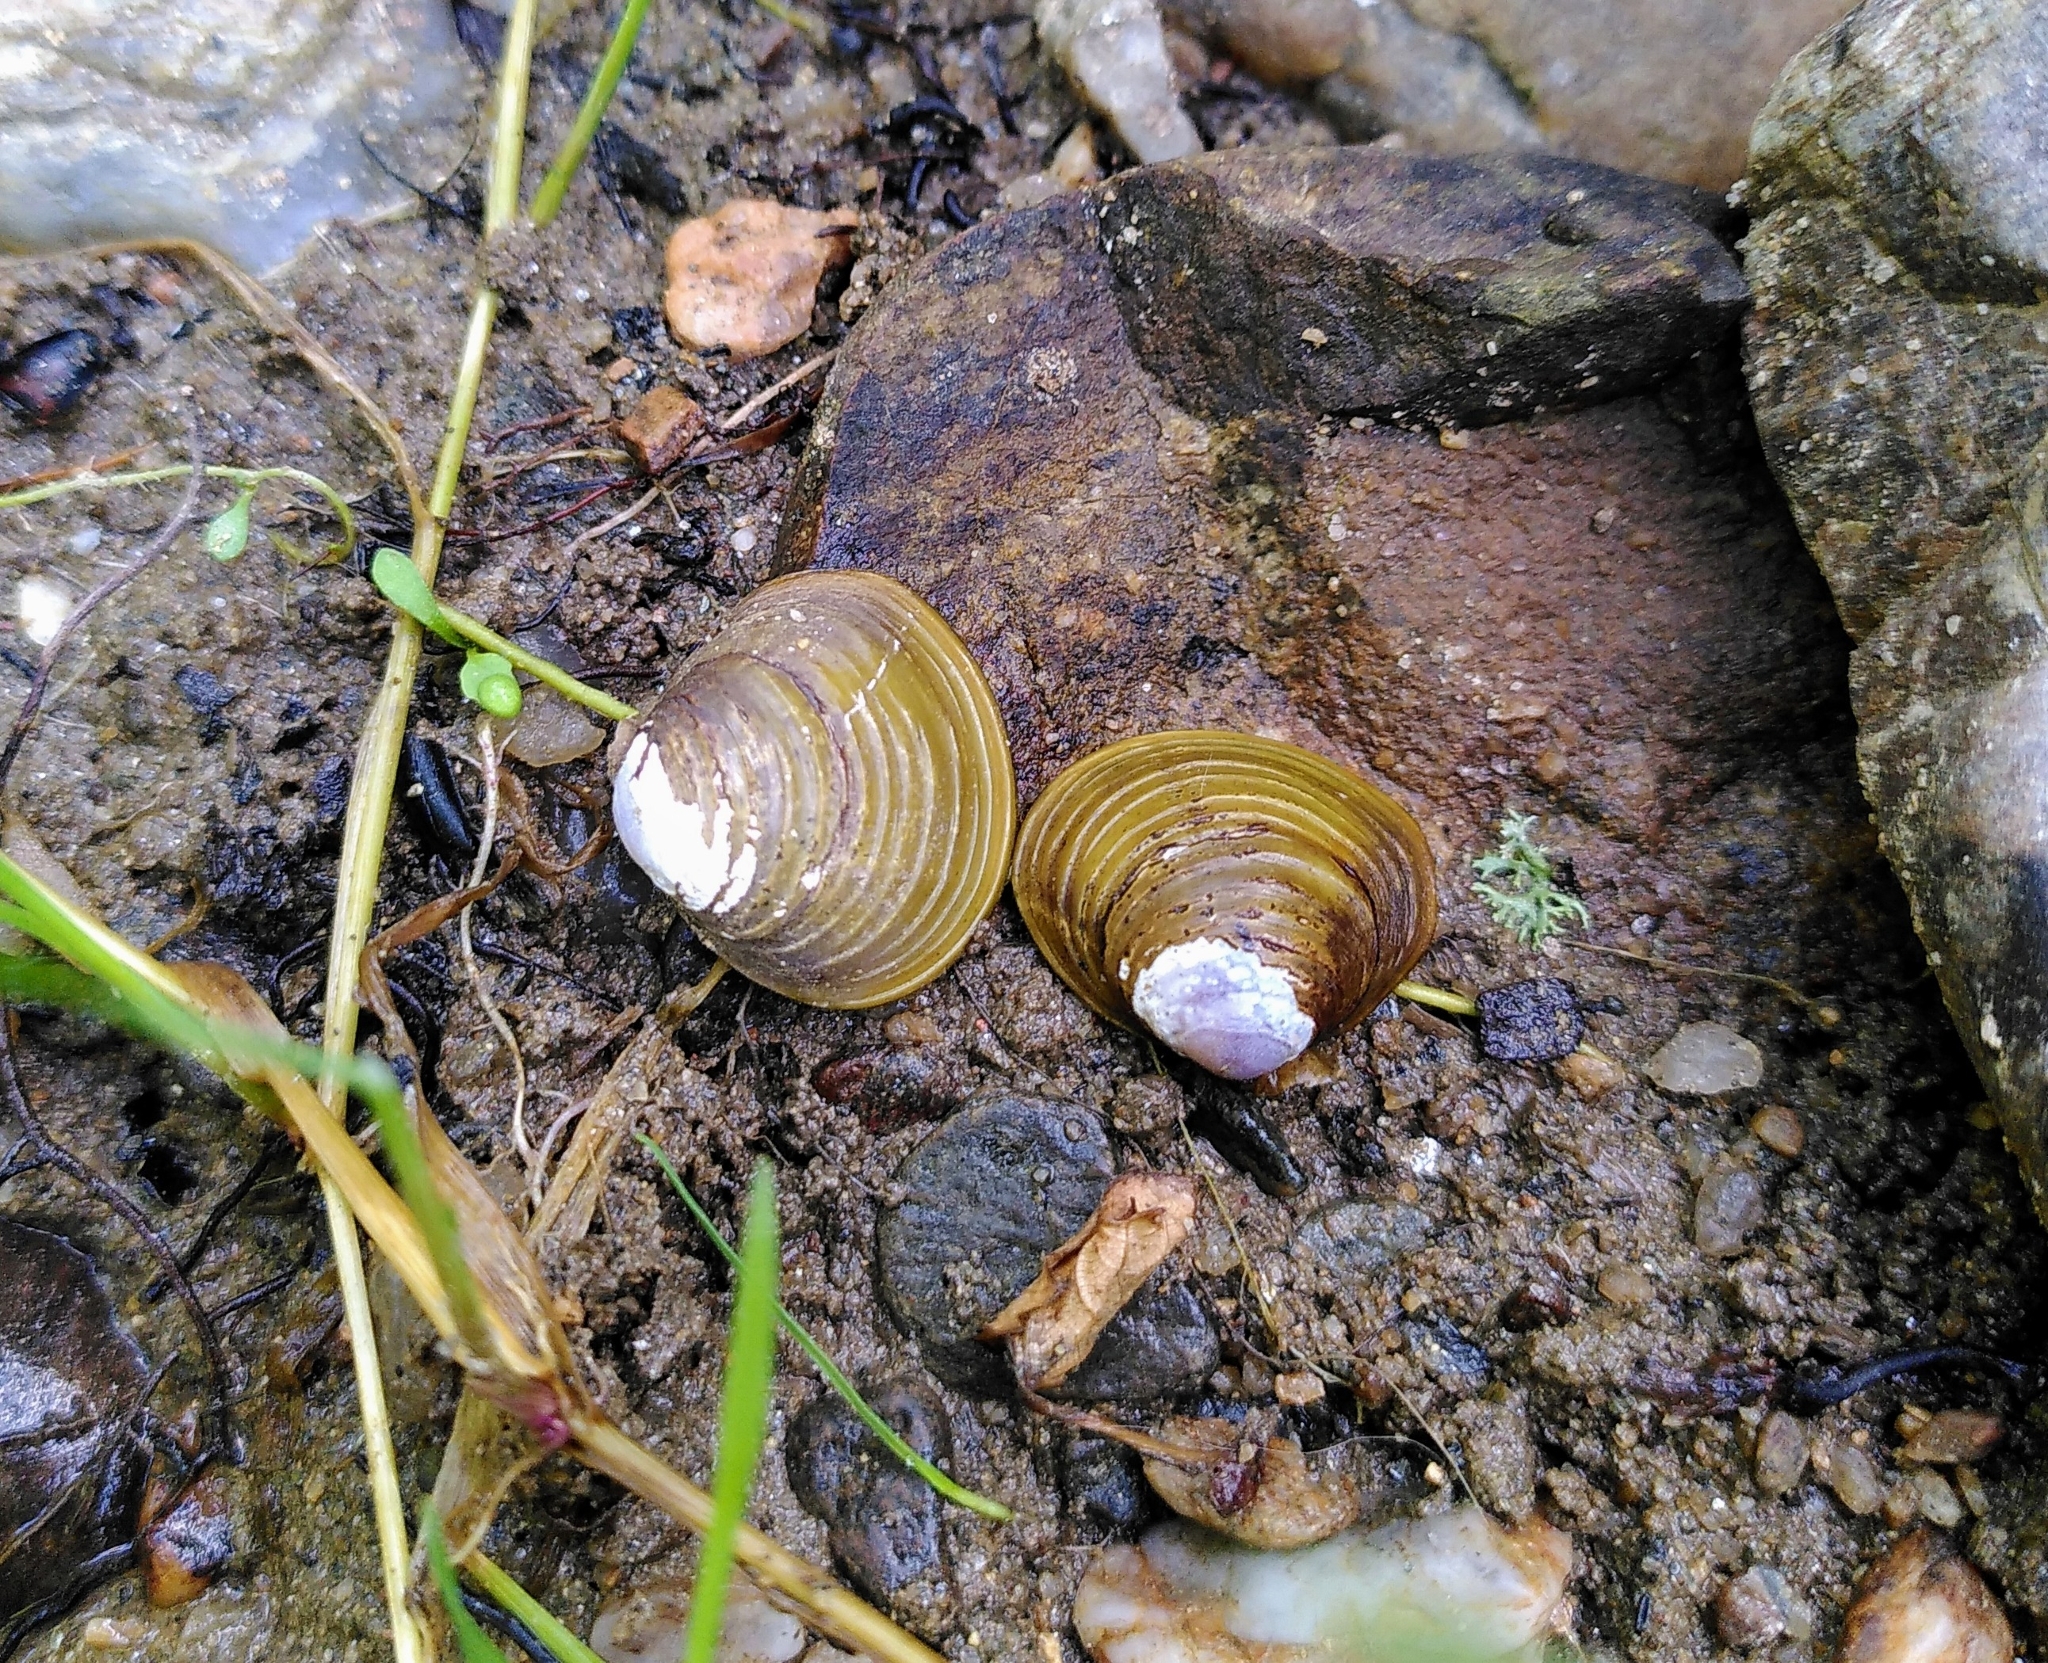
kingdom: Animalia
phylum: Mollusca
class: Bivalvia
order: Venerida
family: Cyrenidae
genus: Corbicula
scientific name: Corbicula fluminea
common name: Asian clam
